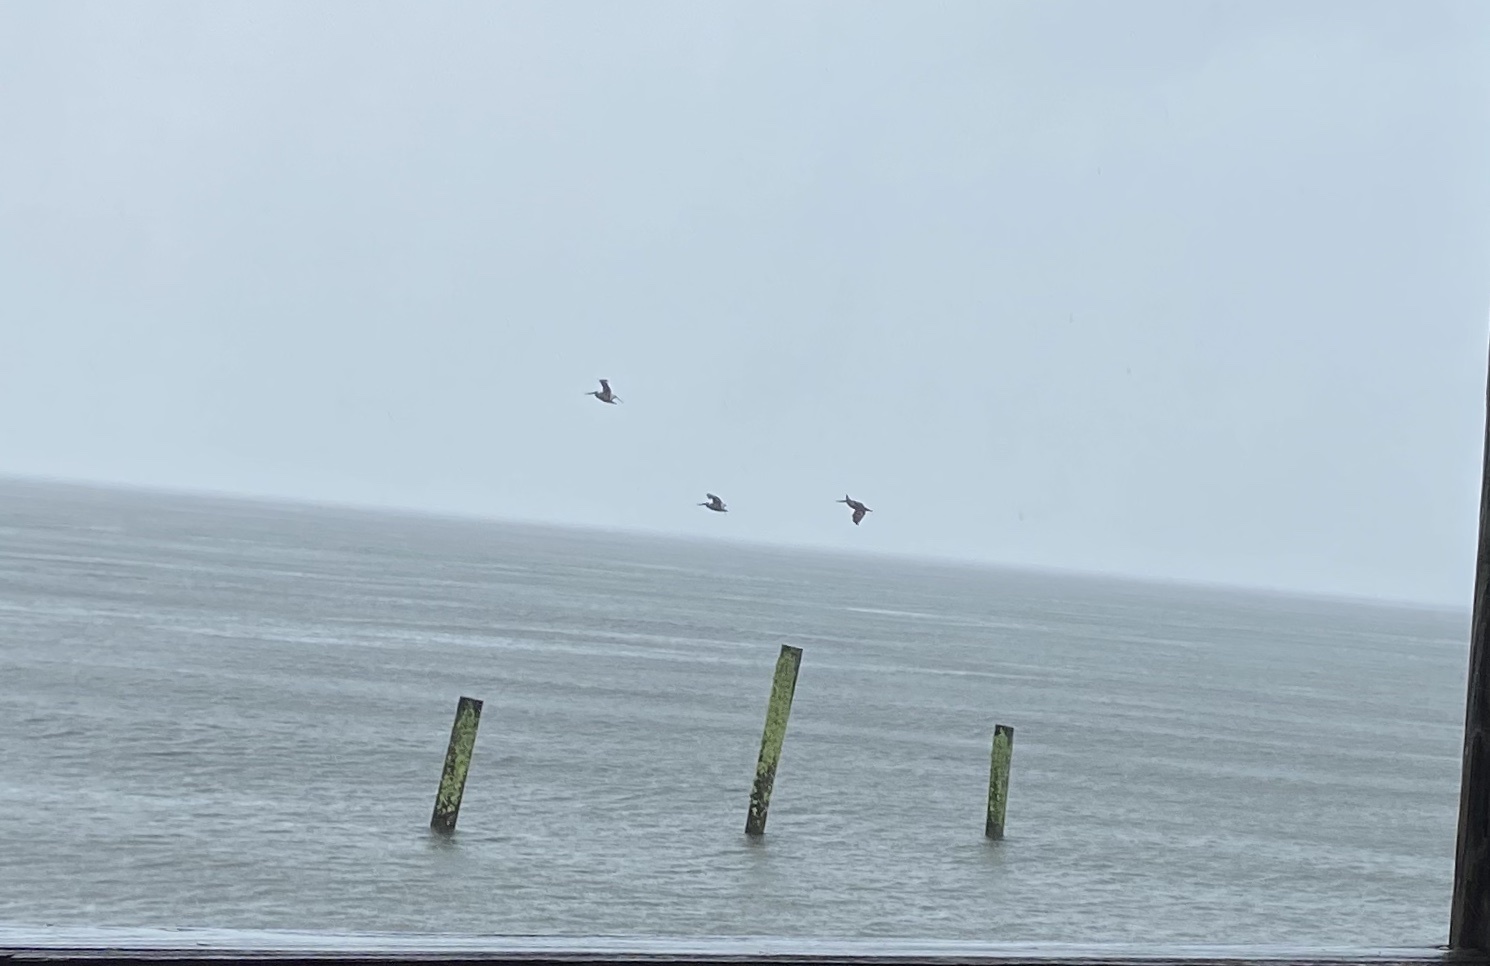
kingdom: Animalia
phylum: Chordata
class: Aves
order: Pelecaniformes
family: Pelecanidae
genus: Pelecanus
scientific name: Pelecanus occidentalis
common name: Brown pelican
